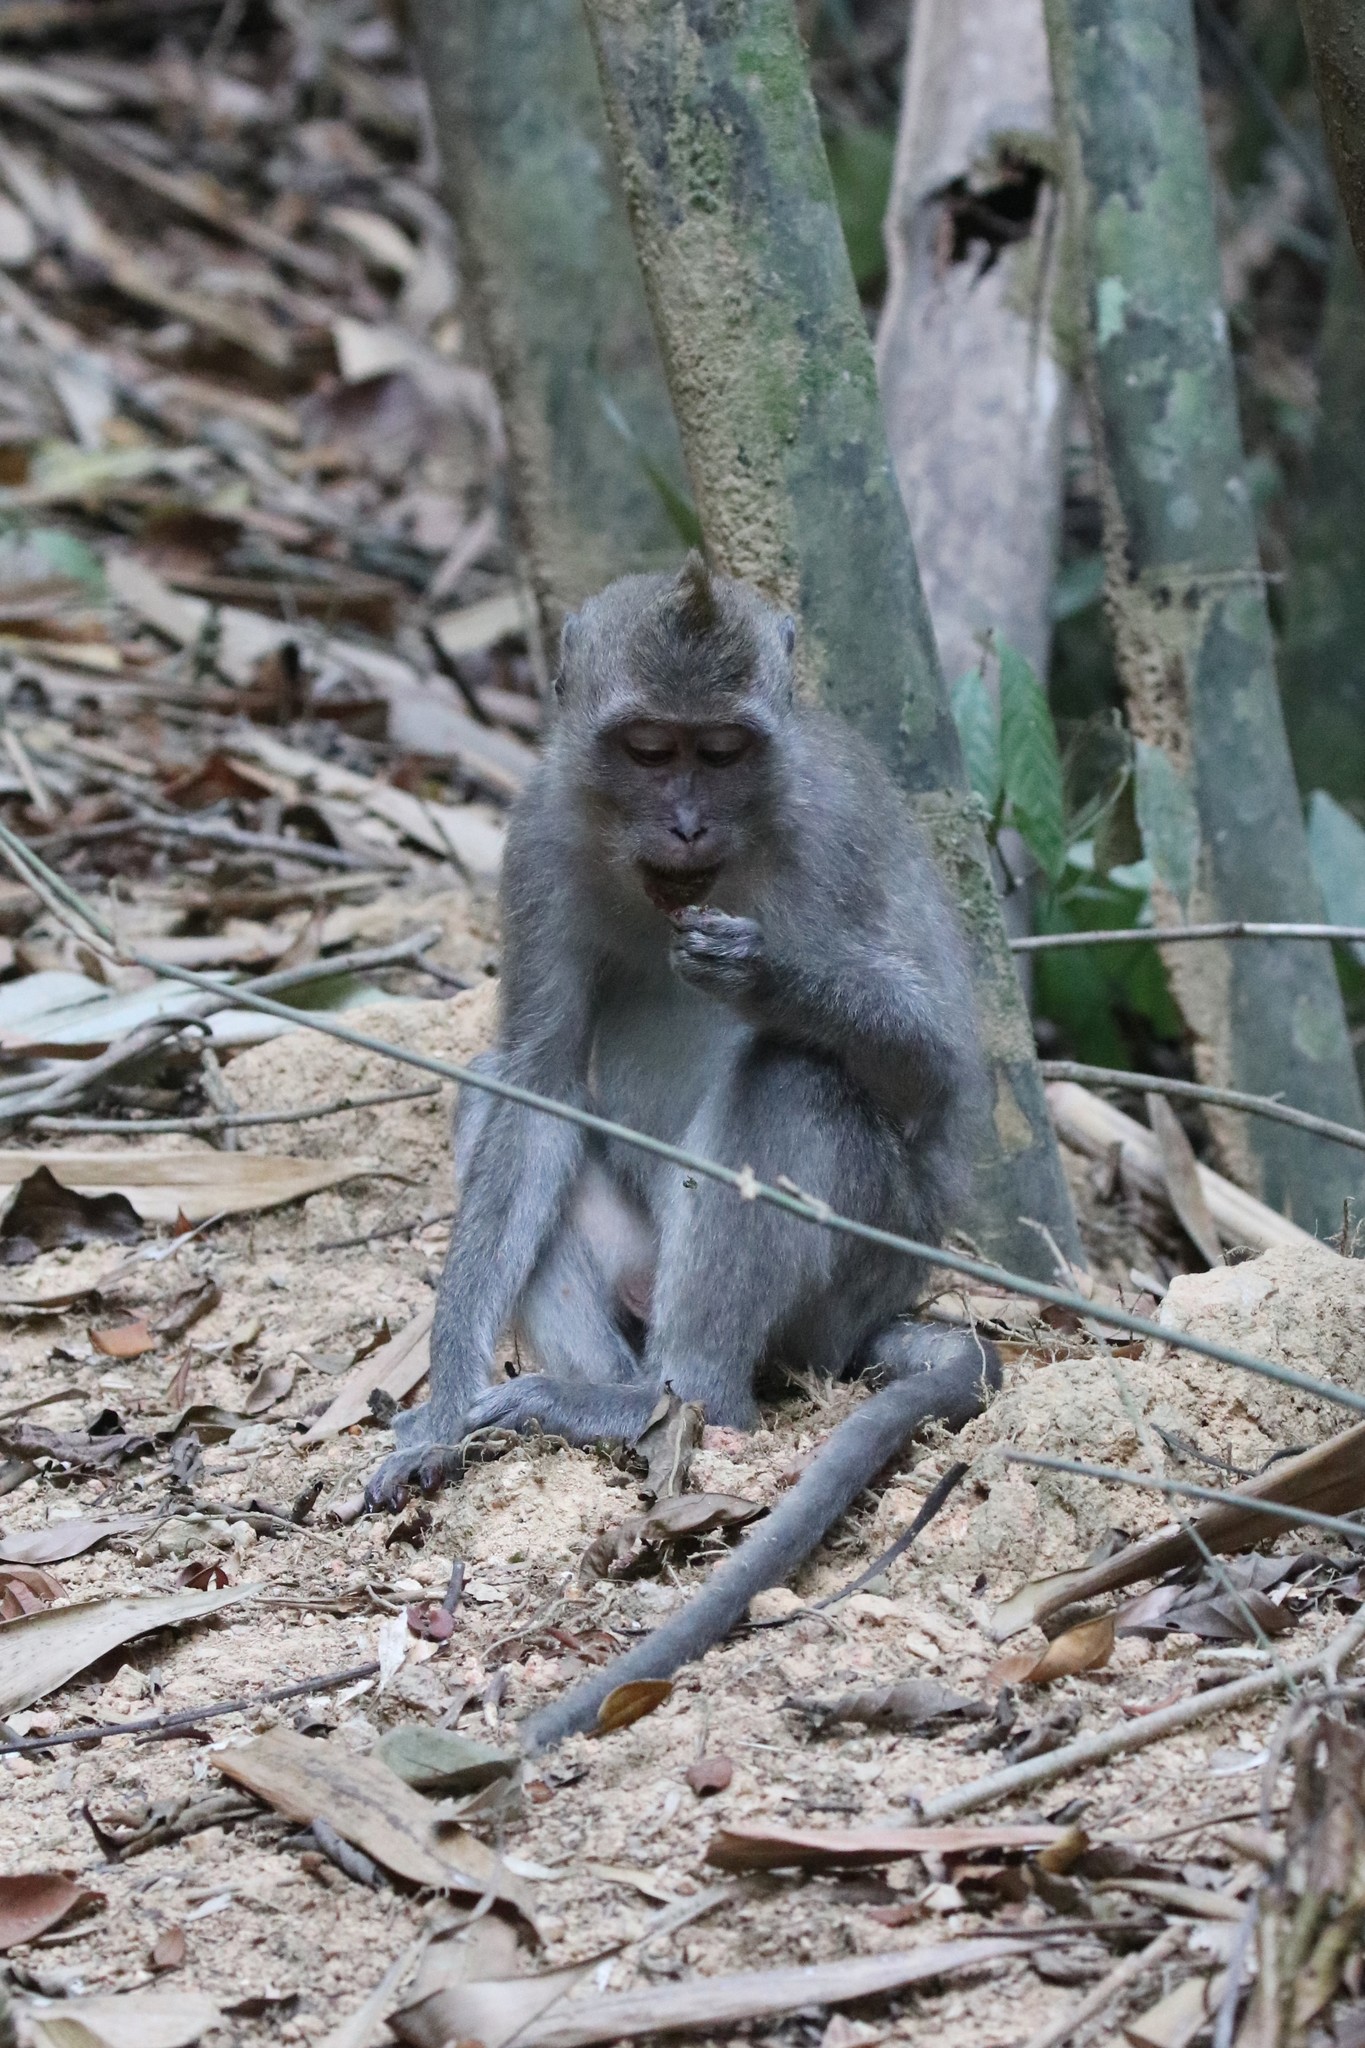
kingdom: Animalia
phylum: Chordata
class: Mammalia
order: Primates
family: Cercopithecidae
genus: Macaca
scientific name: Macaca fascicularis
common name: Crab-eating macaque
